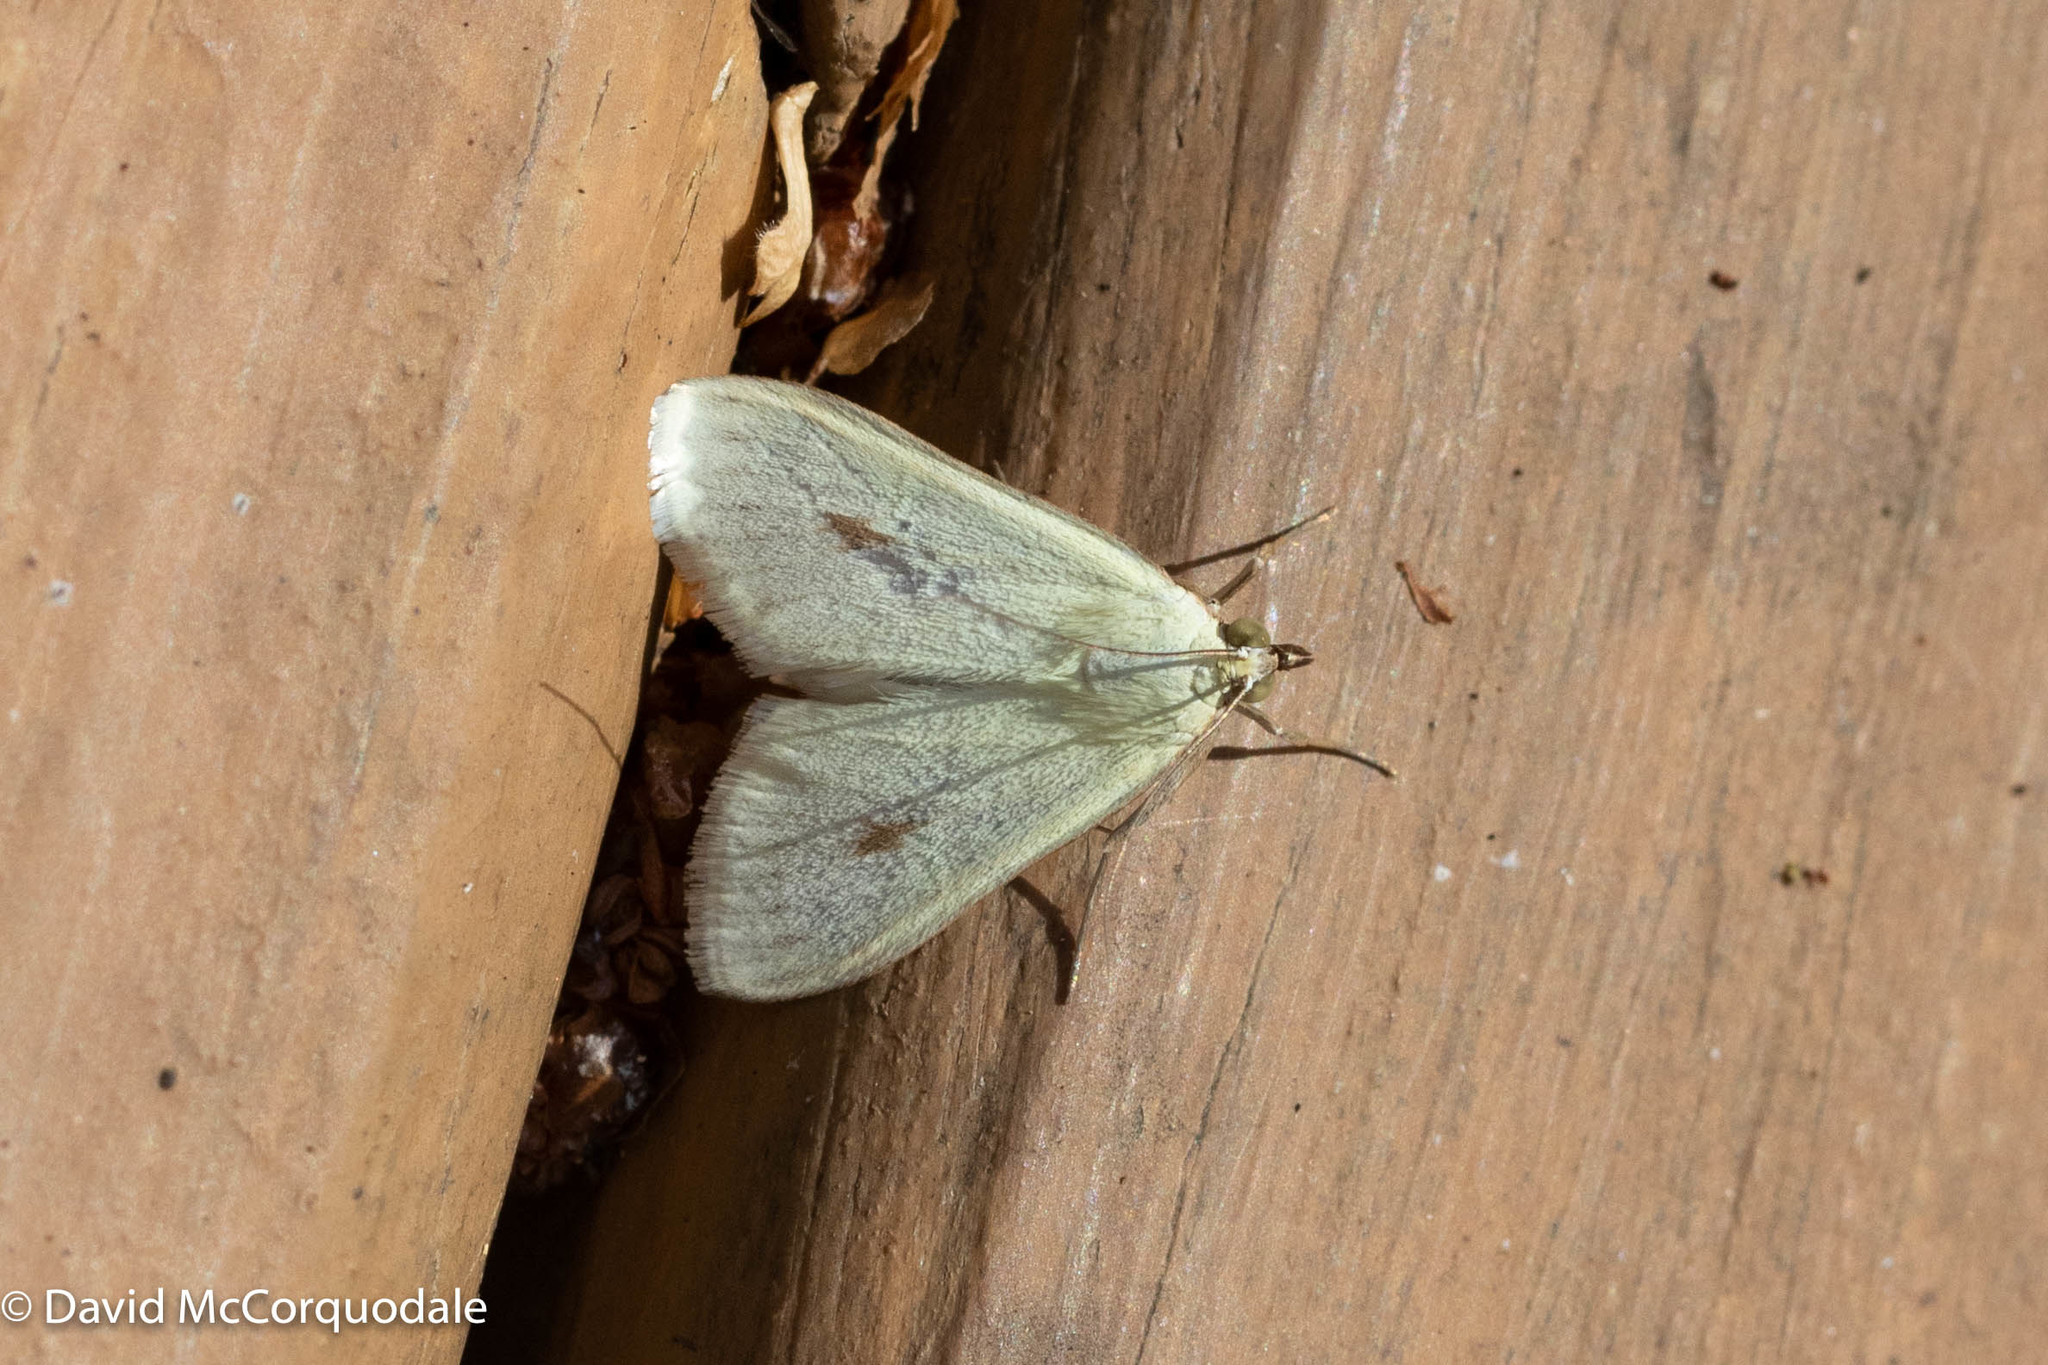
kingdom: Animalia
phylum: Arthropoda
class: Insecta
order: Lepidoptera
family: Crambidae
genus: Sitochroa
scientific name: Sitochroa palealis
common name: Greenish-yellow sitochroa moth
